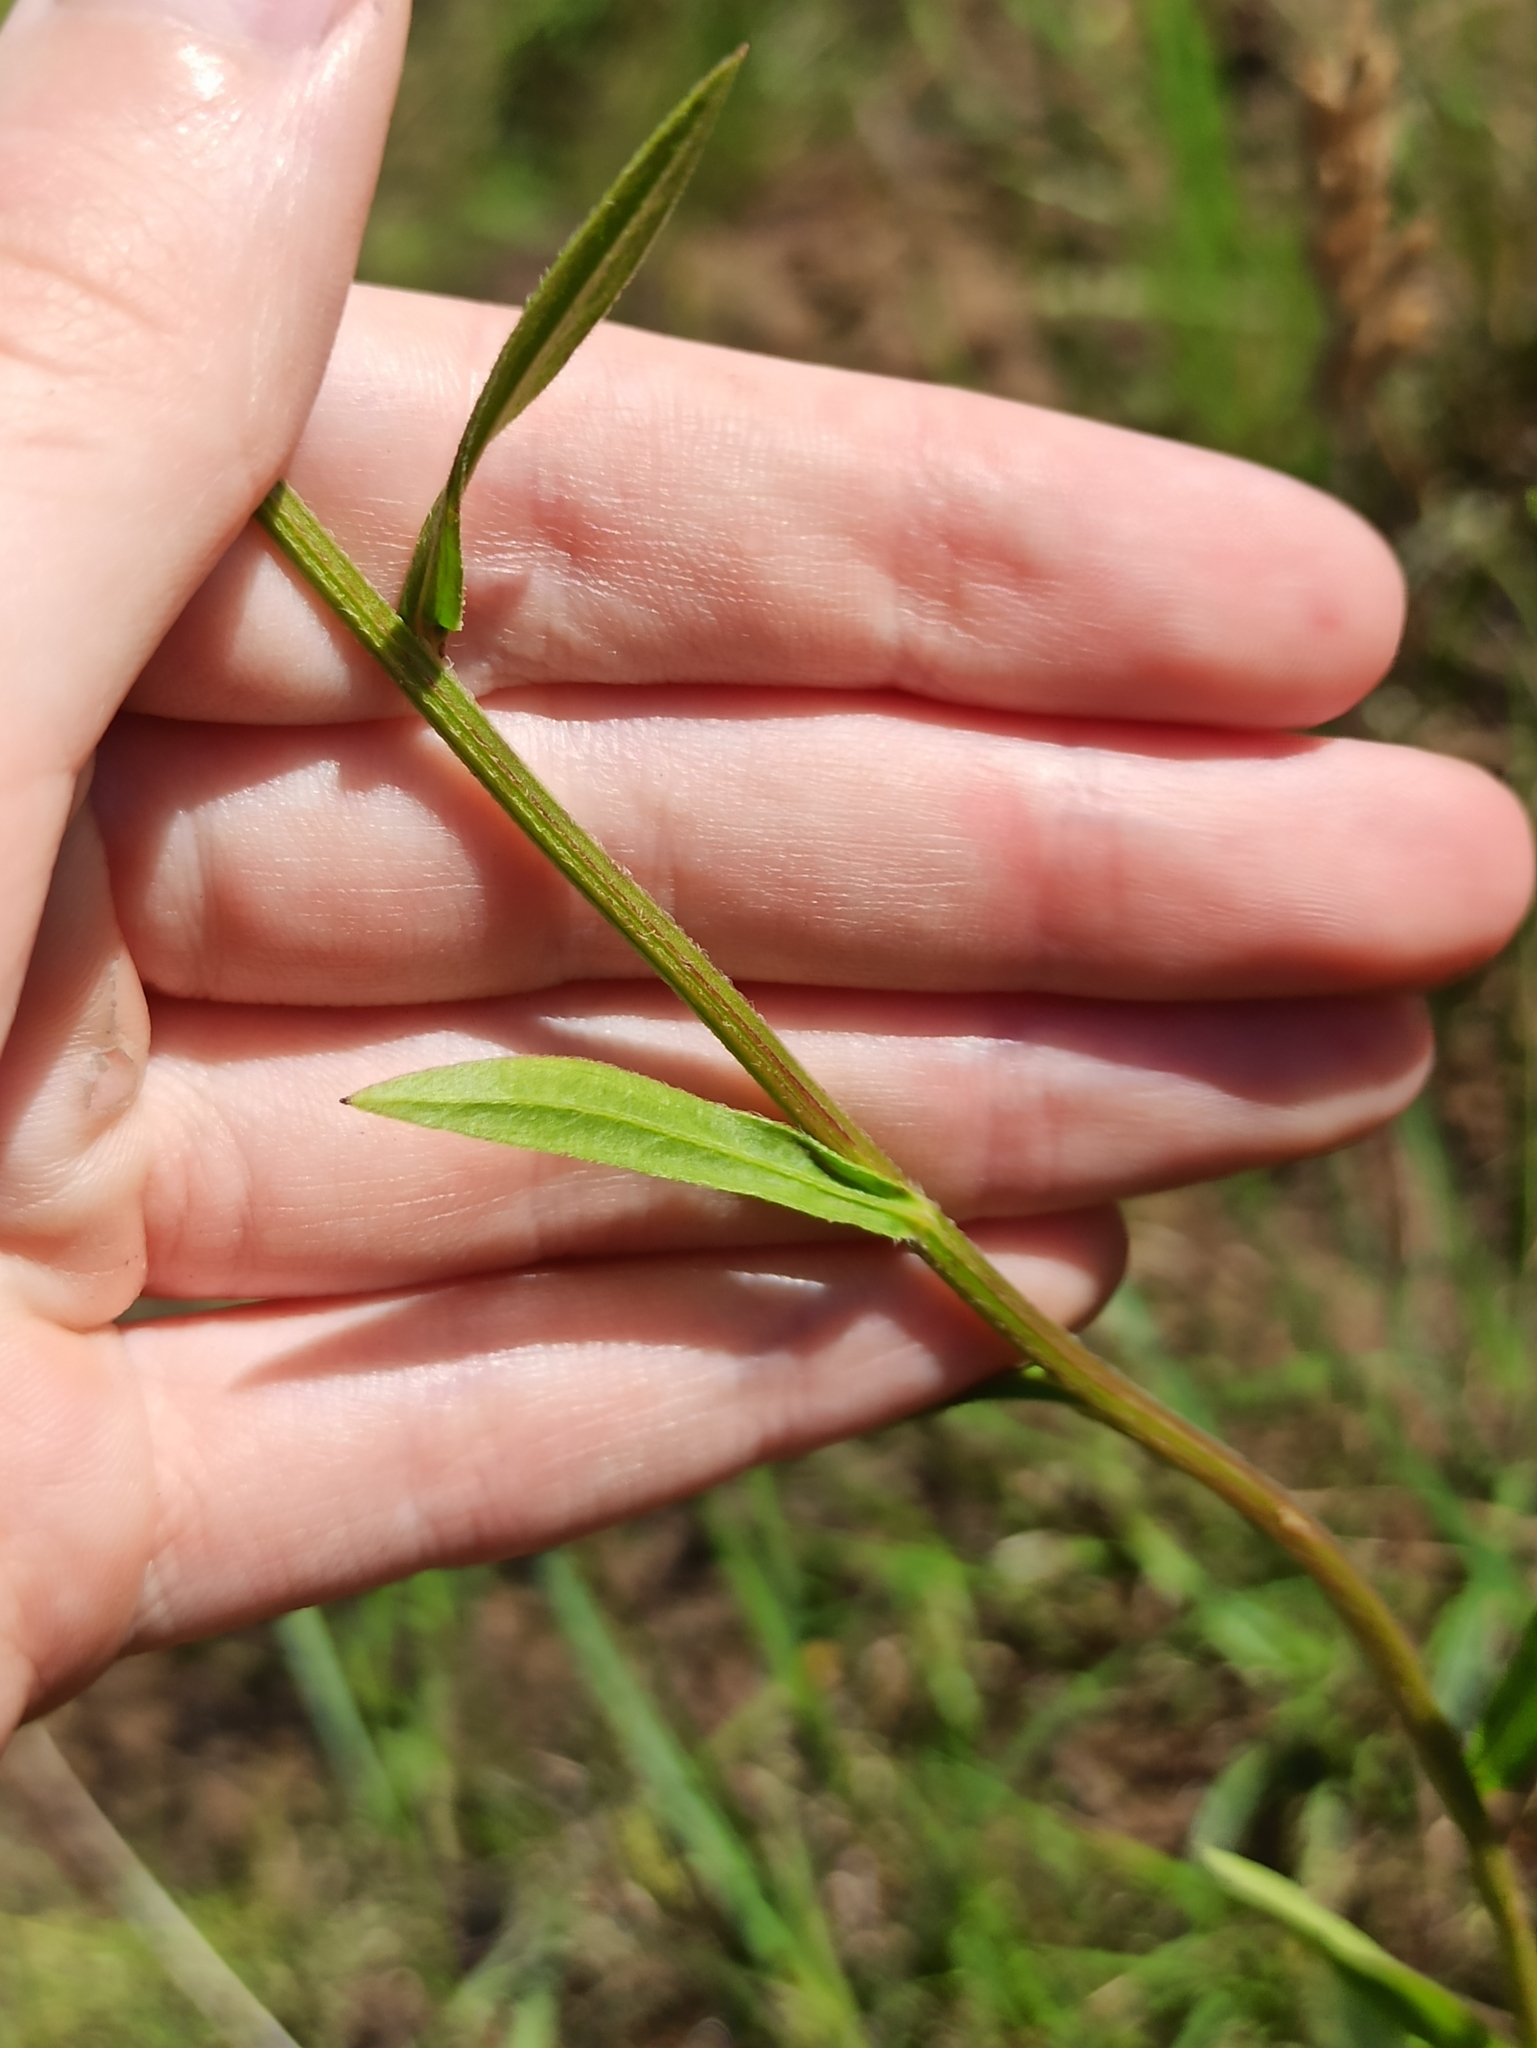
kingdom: Plantae
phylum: Tracheophyta
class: Magnoliopsida
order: Asterales
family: Asteraceae
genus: Erigeron
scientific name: Erigeron annuus
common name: Tall fleabane
